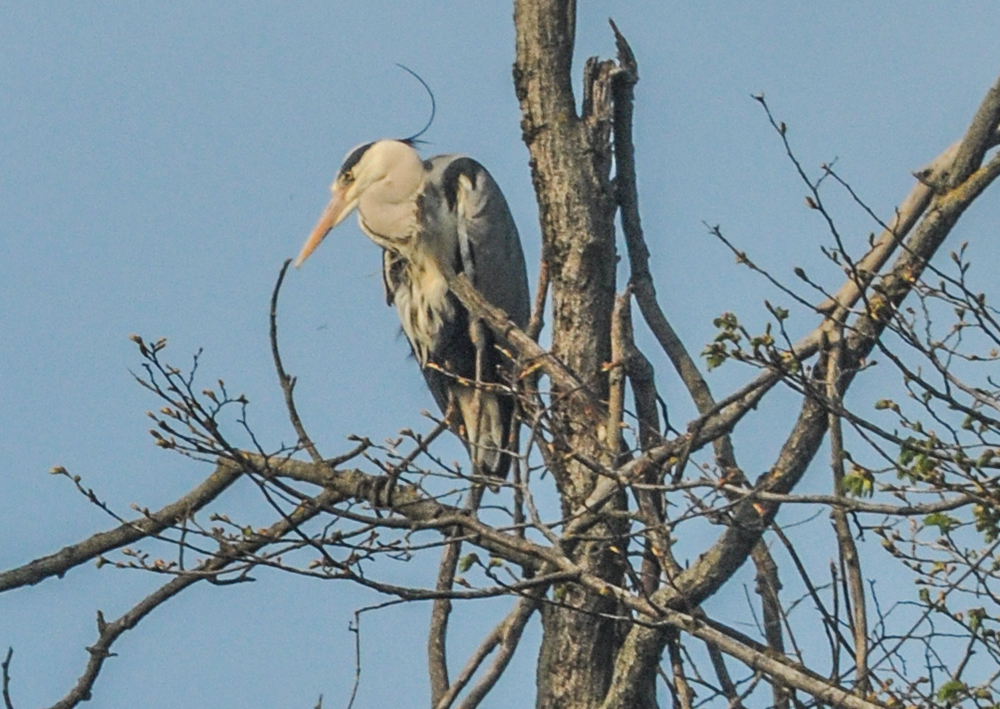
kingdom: Animalia
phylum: Chordata
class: Aves
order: Pelecaniformes
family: Ardeidae
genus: Ardea
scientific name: Ardea cinerea
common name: Grey heron
